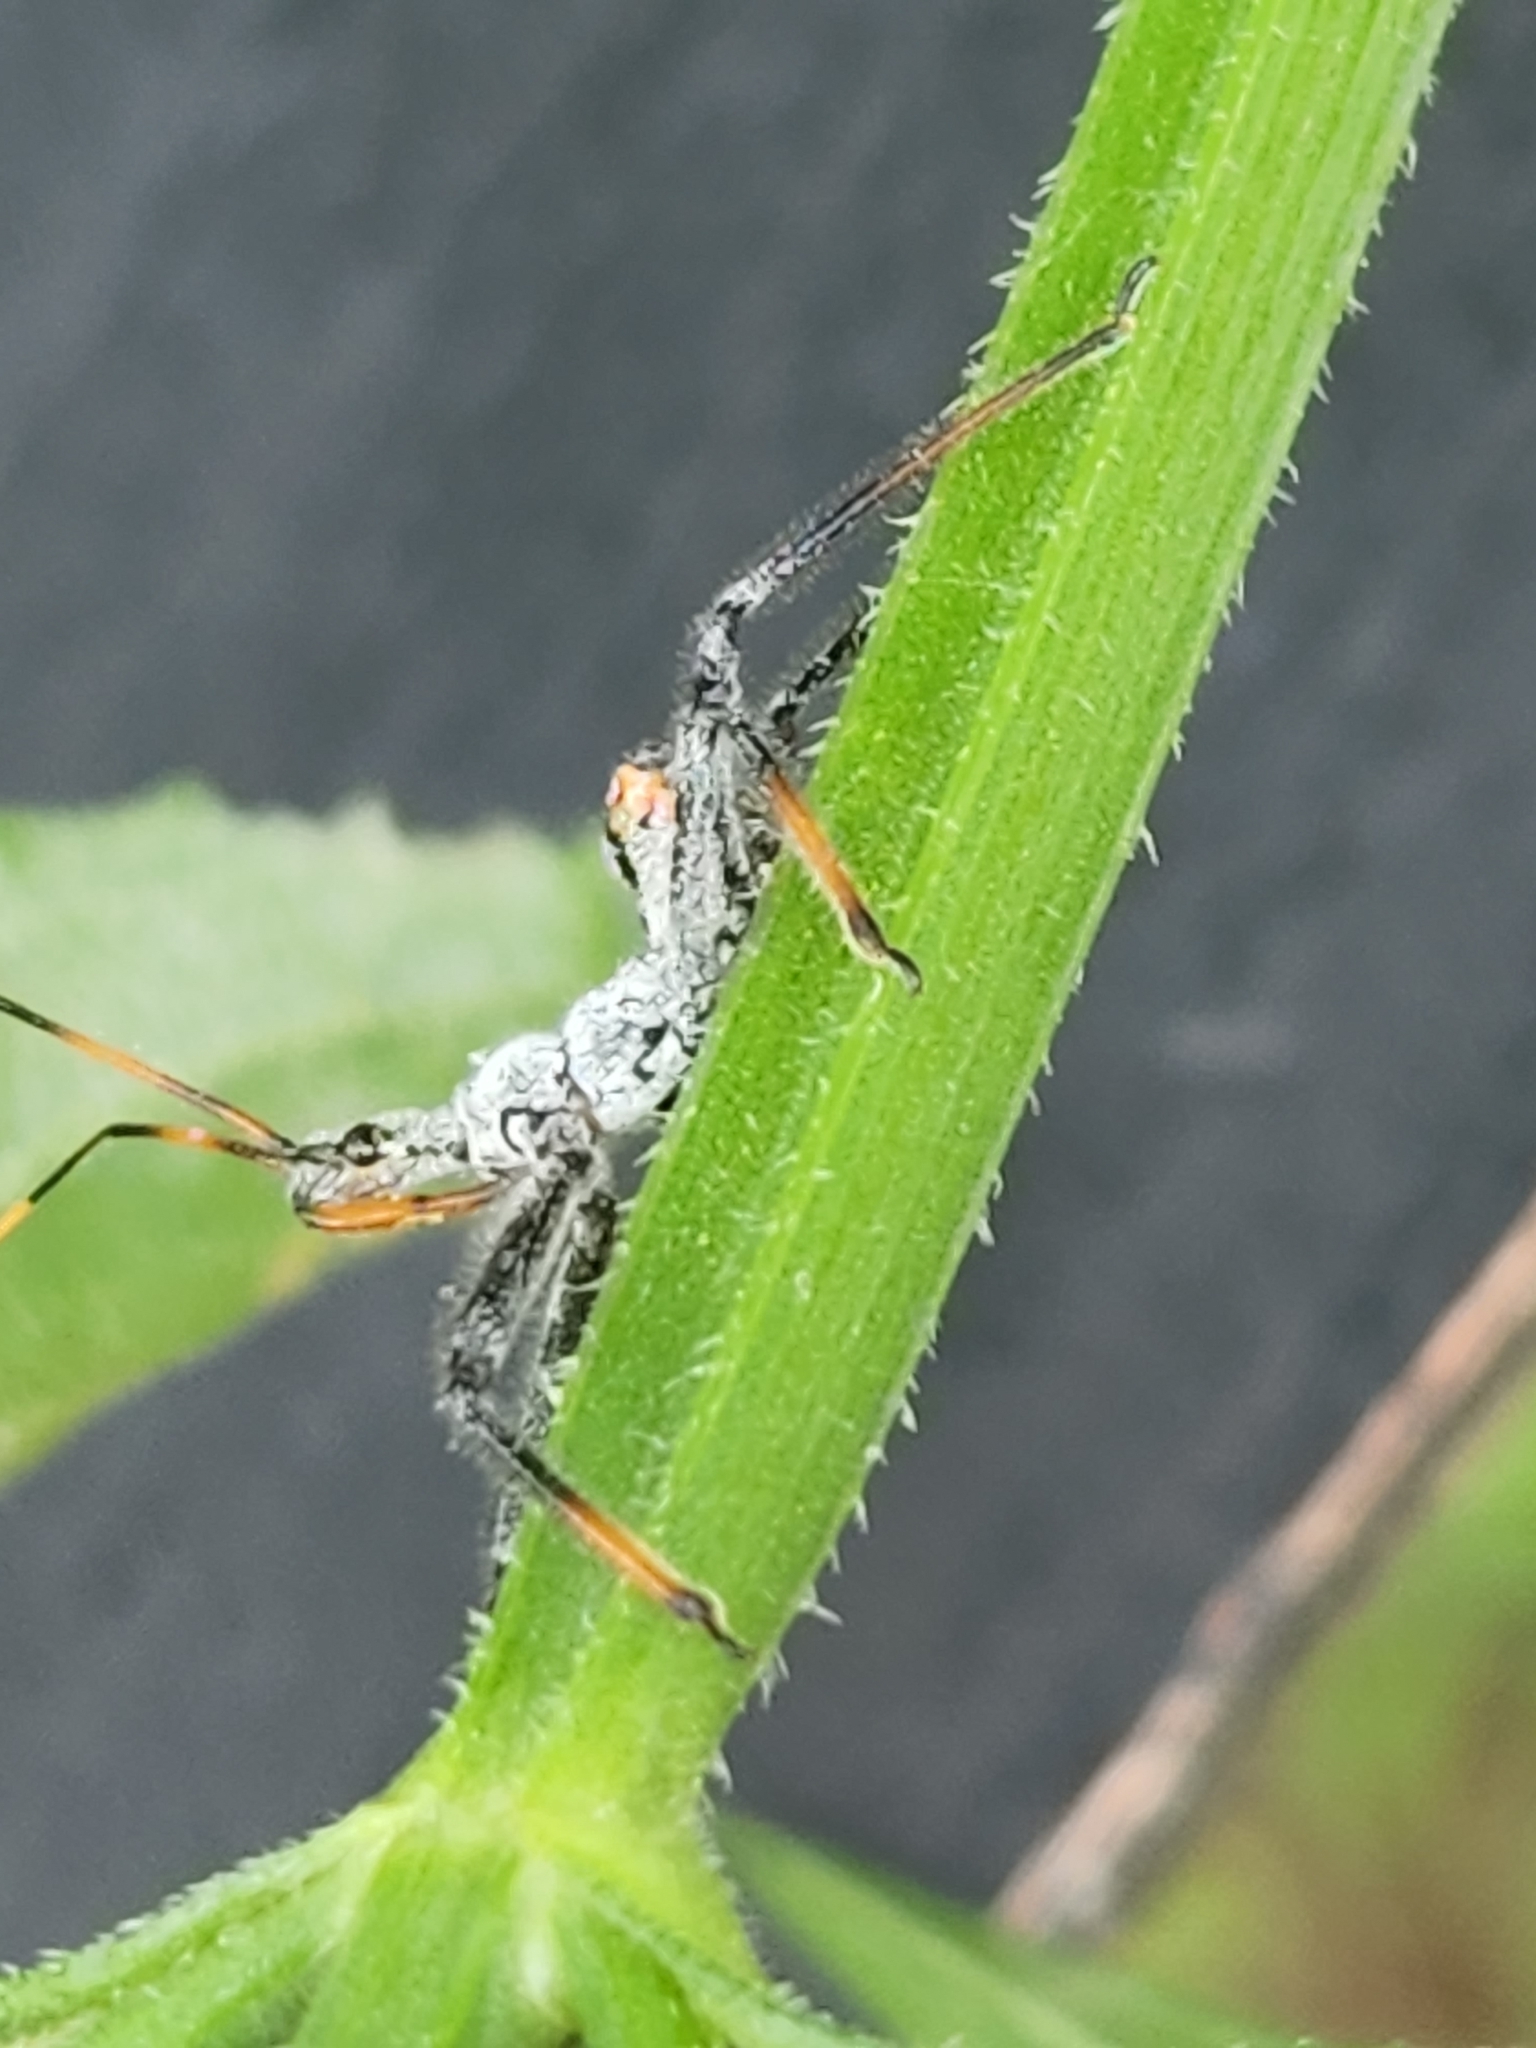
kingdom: Animalia
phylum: Arthropoda
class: Insecta
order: Hemiptera
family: Reduviidae
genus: Arilus
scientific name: Arilus cristatus
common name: North american wheel bug
